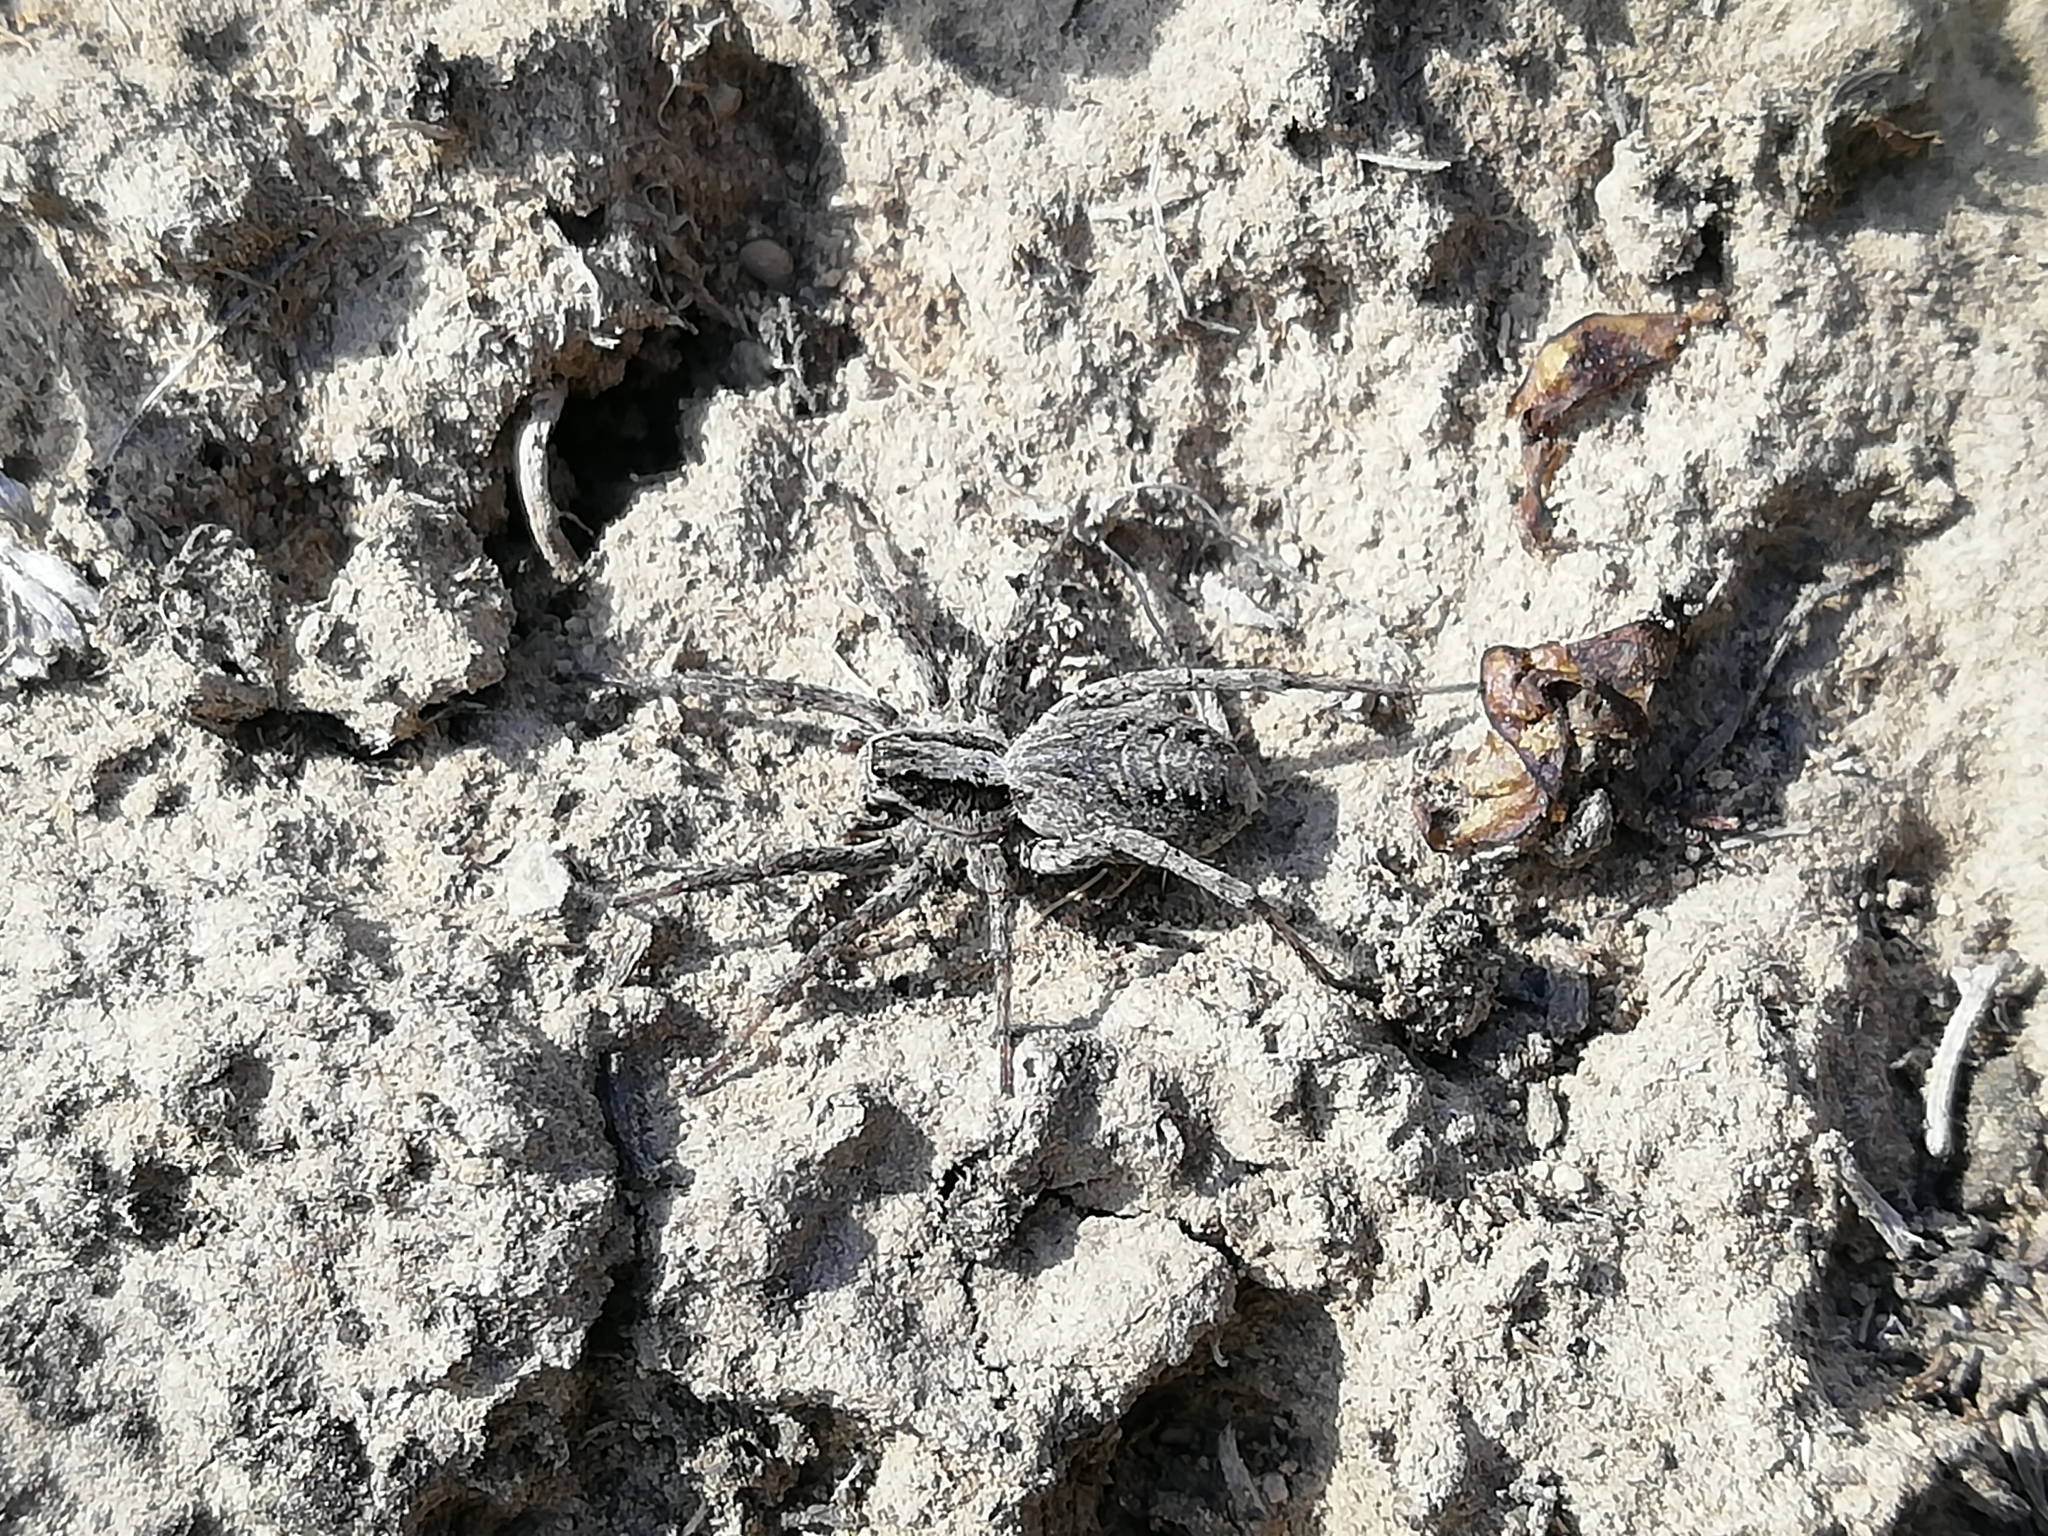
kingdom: Animalia
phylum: Arthropoda
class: Arachnida
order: Araneae
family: Lycosidae
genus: Alopecosa
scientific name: Alopecosa cursor
